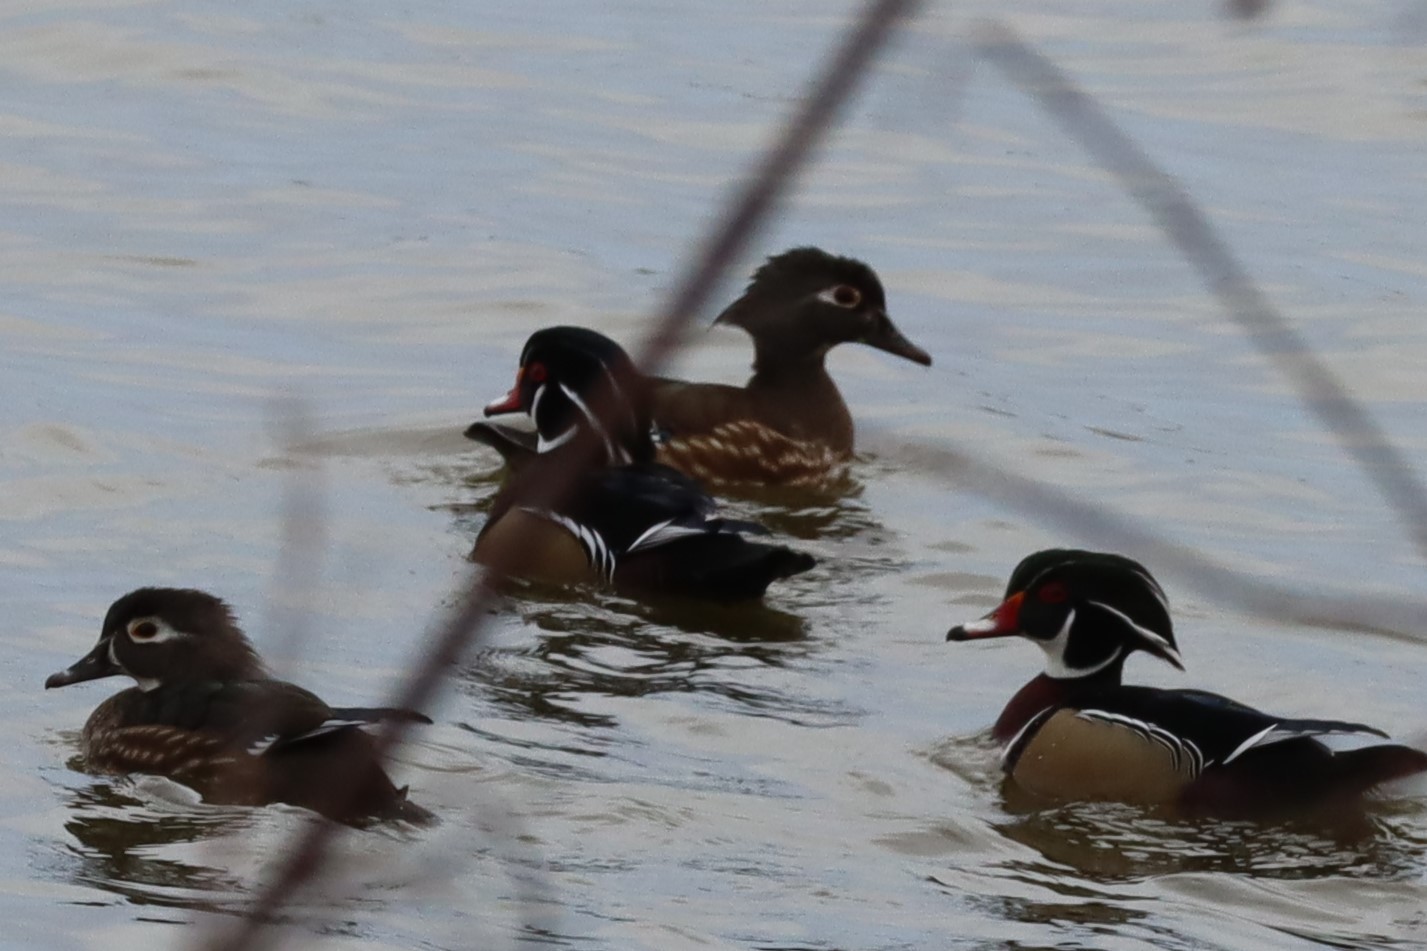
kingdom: Animalia
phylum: Chordata
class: Aves
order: Anseriformes
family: Anatidae
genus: Aix
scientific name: Aix sponsa
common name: Wood duck
